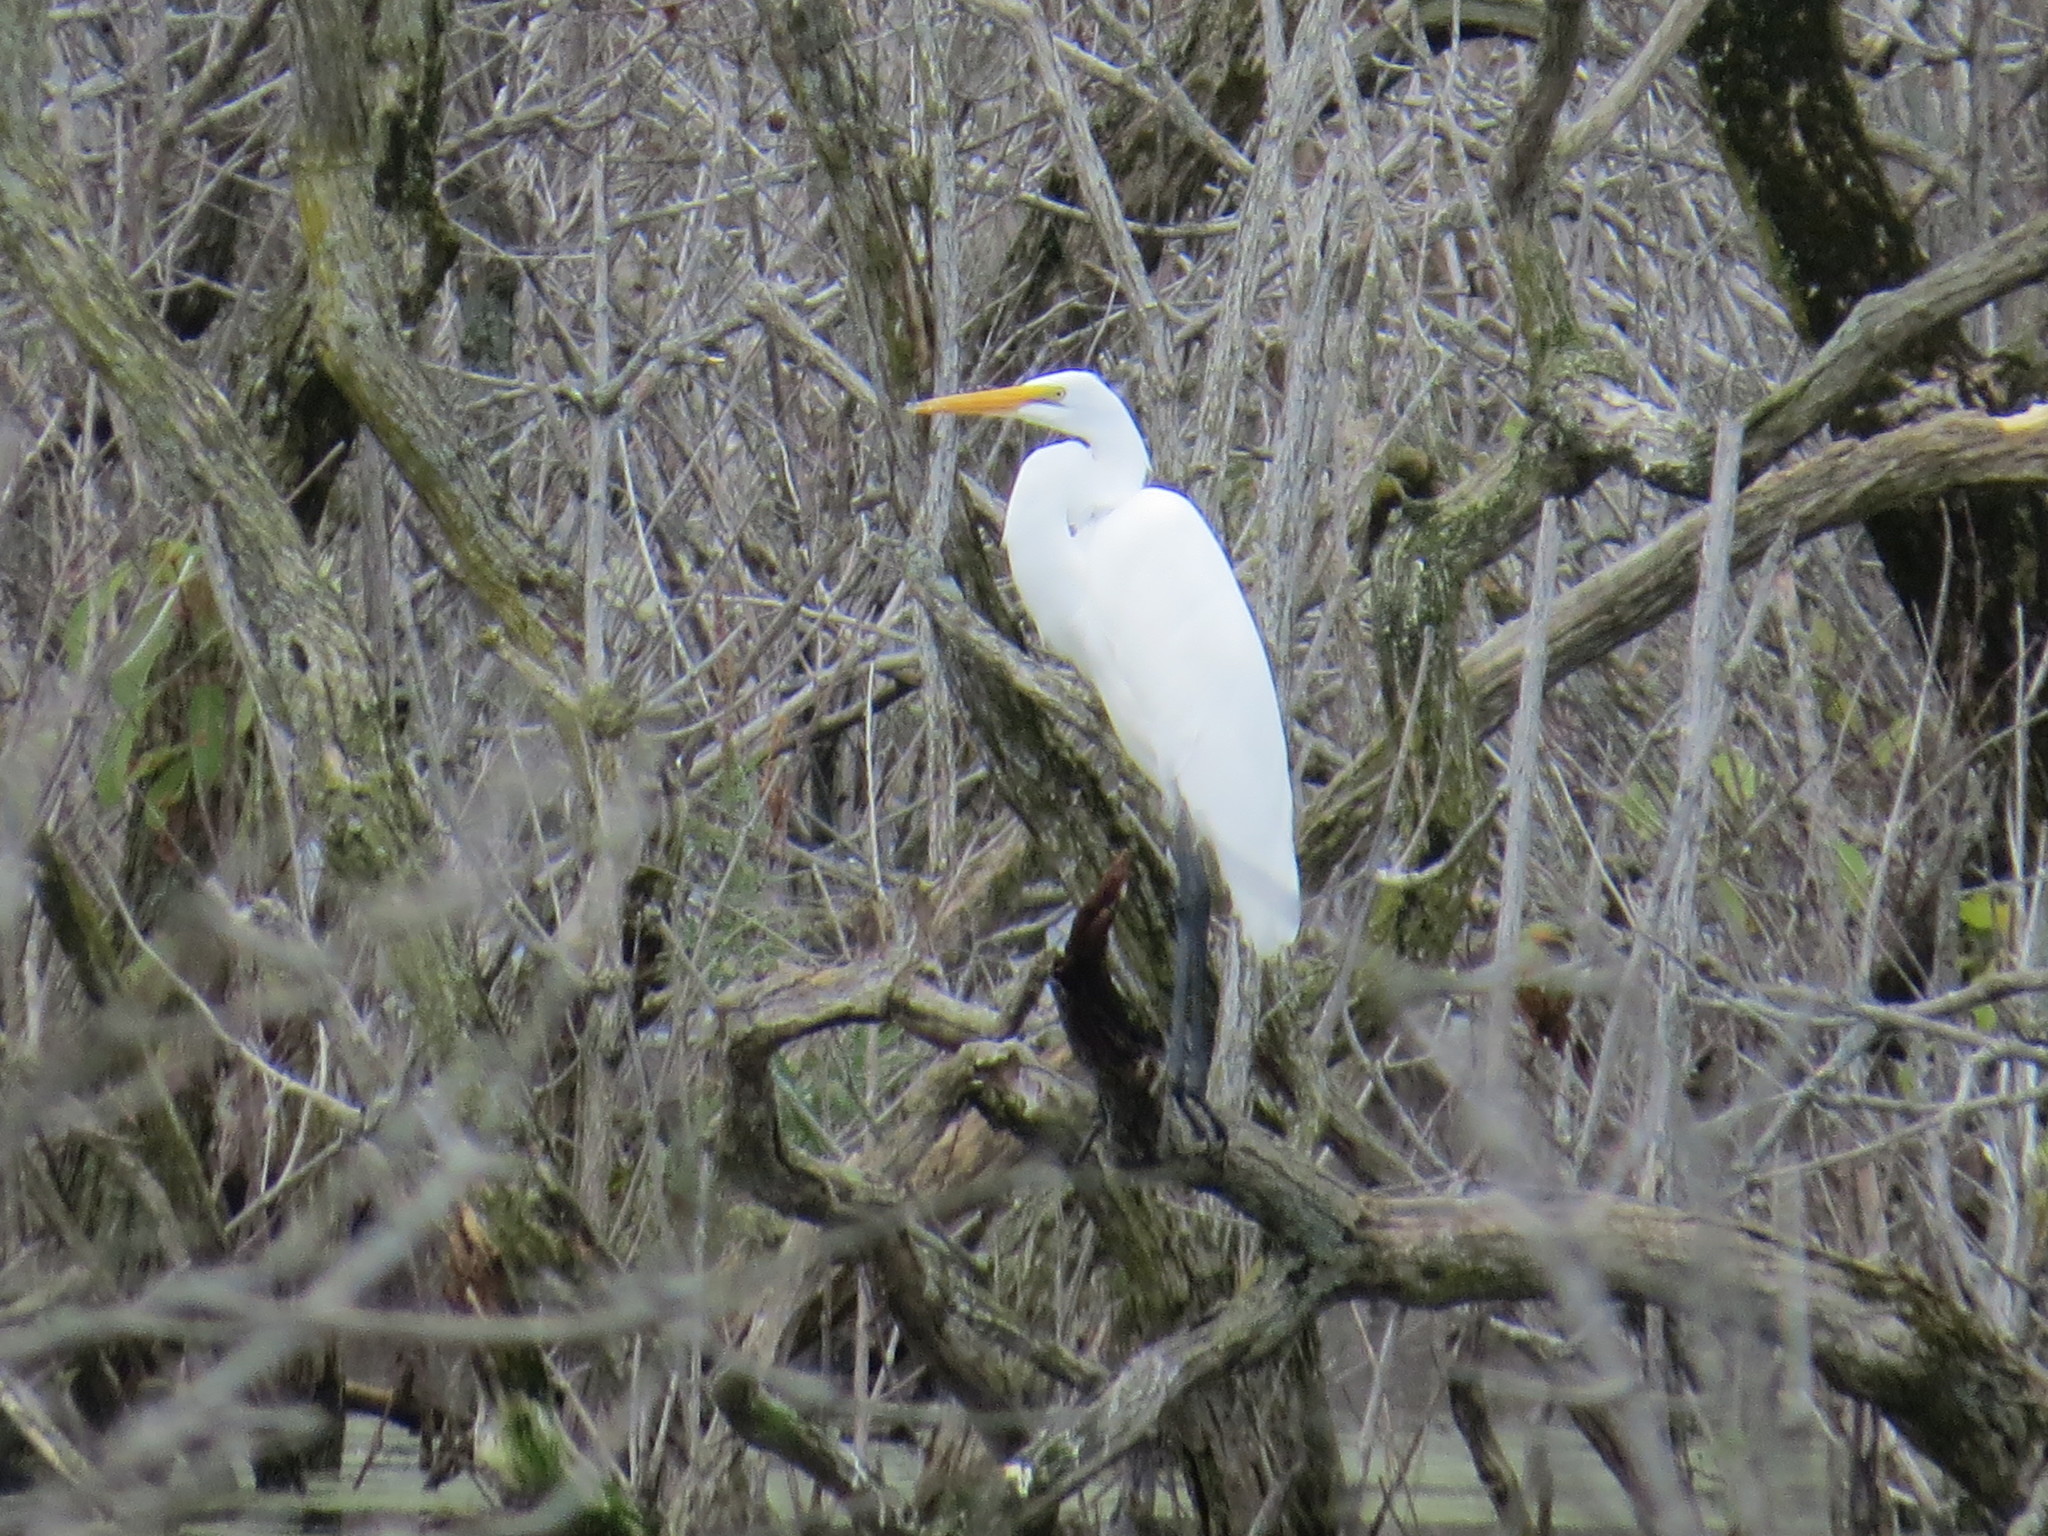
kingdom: Animalia
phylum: Chordata
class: Aves
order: Pelecaniformes
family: Ardeidae
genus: Ardea
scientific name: Ardea alba
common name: Great egret
